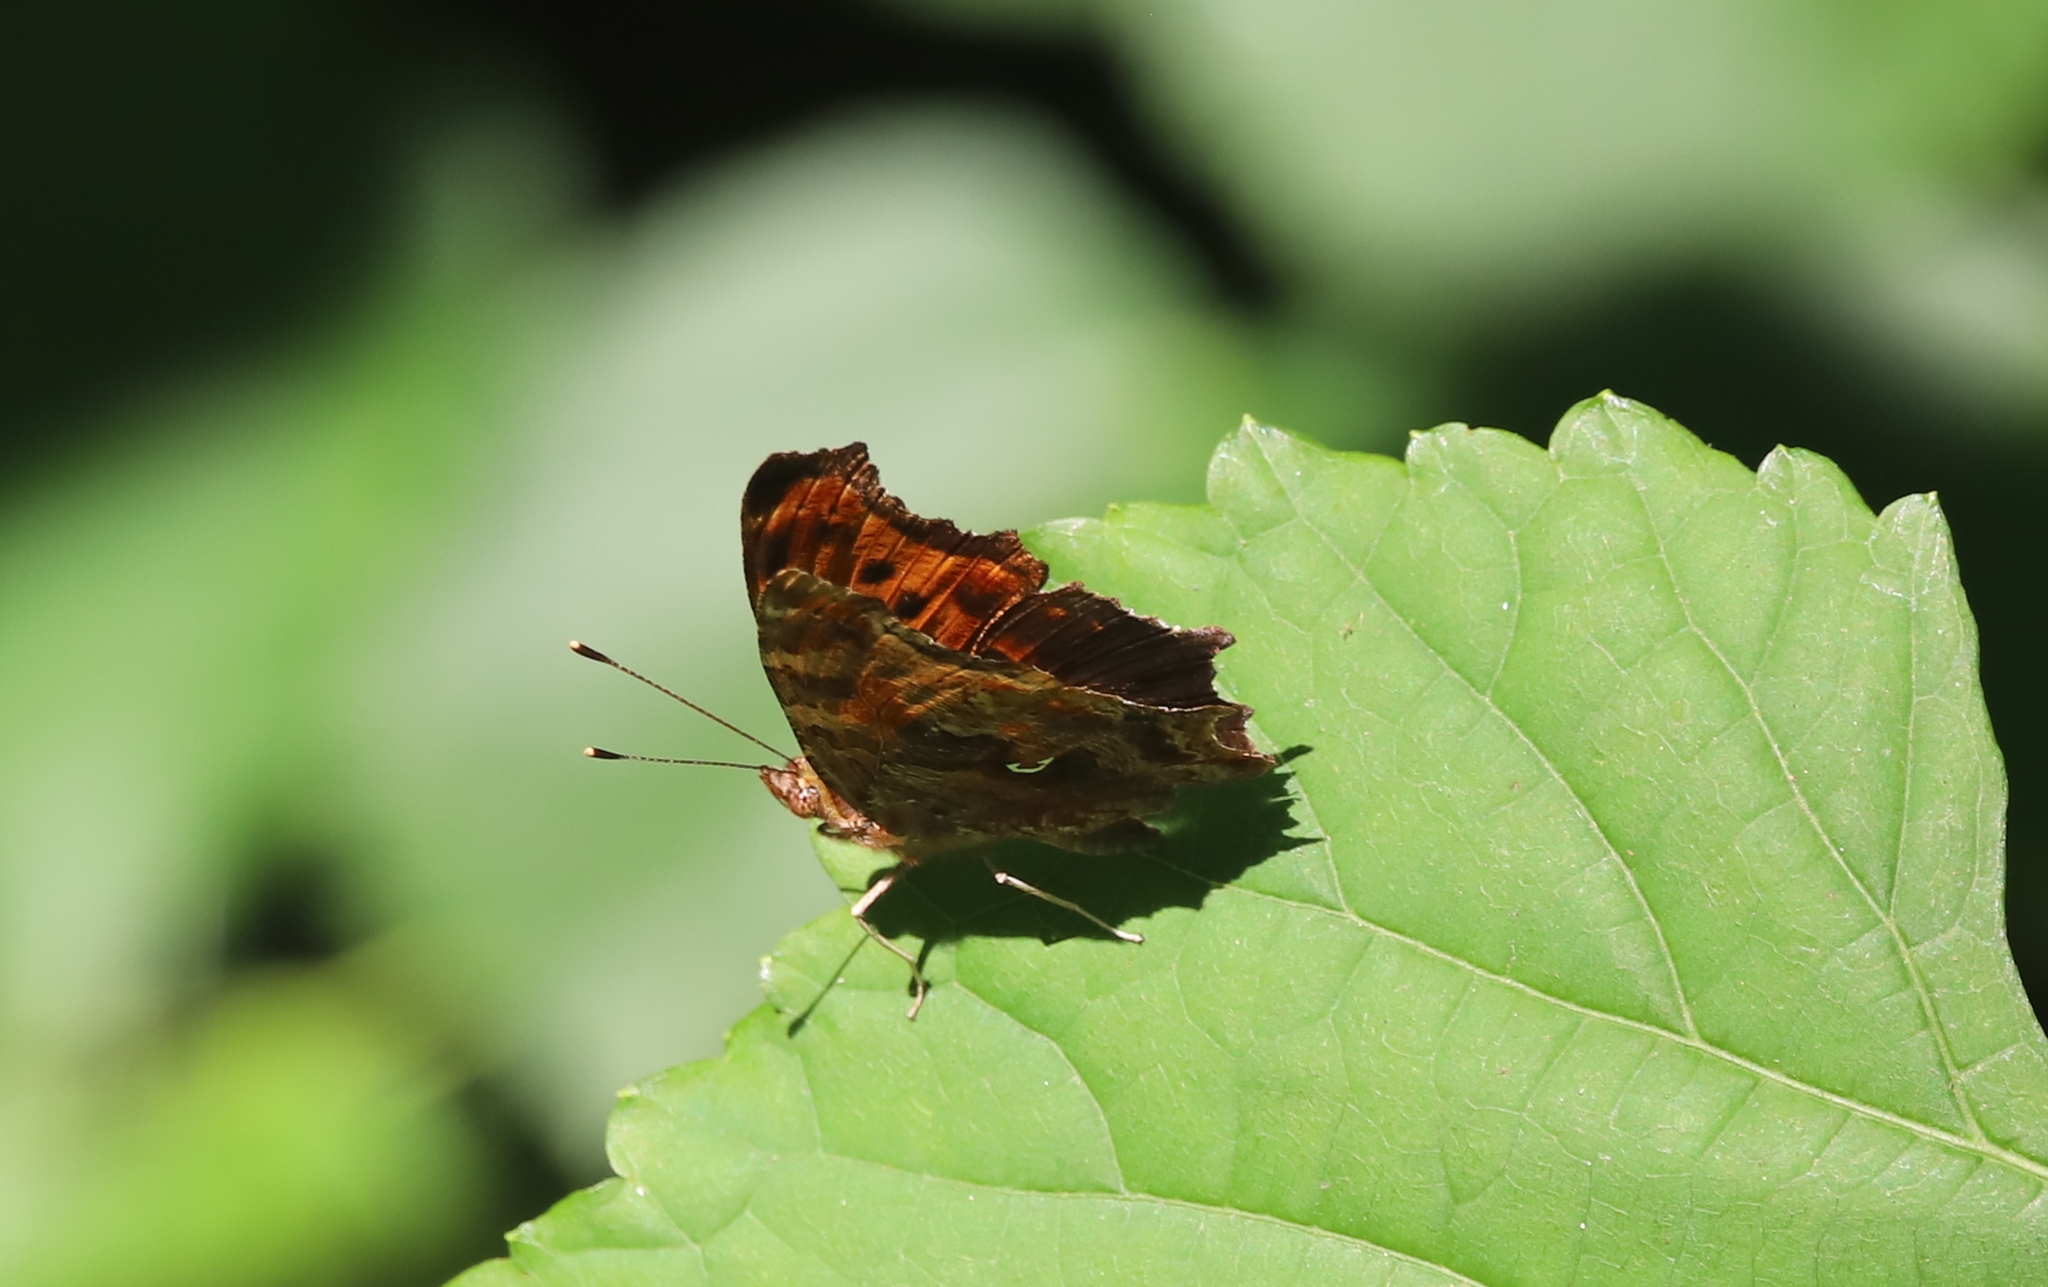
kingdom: Animalia
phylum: Arthropoda
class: Insecta
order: Lepidoptera
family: Nymphalidae
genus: Polygonia
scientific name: Polygonia comma
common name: Eastern comma
